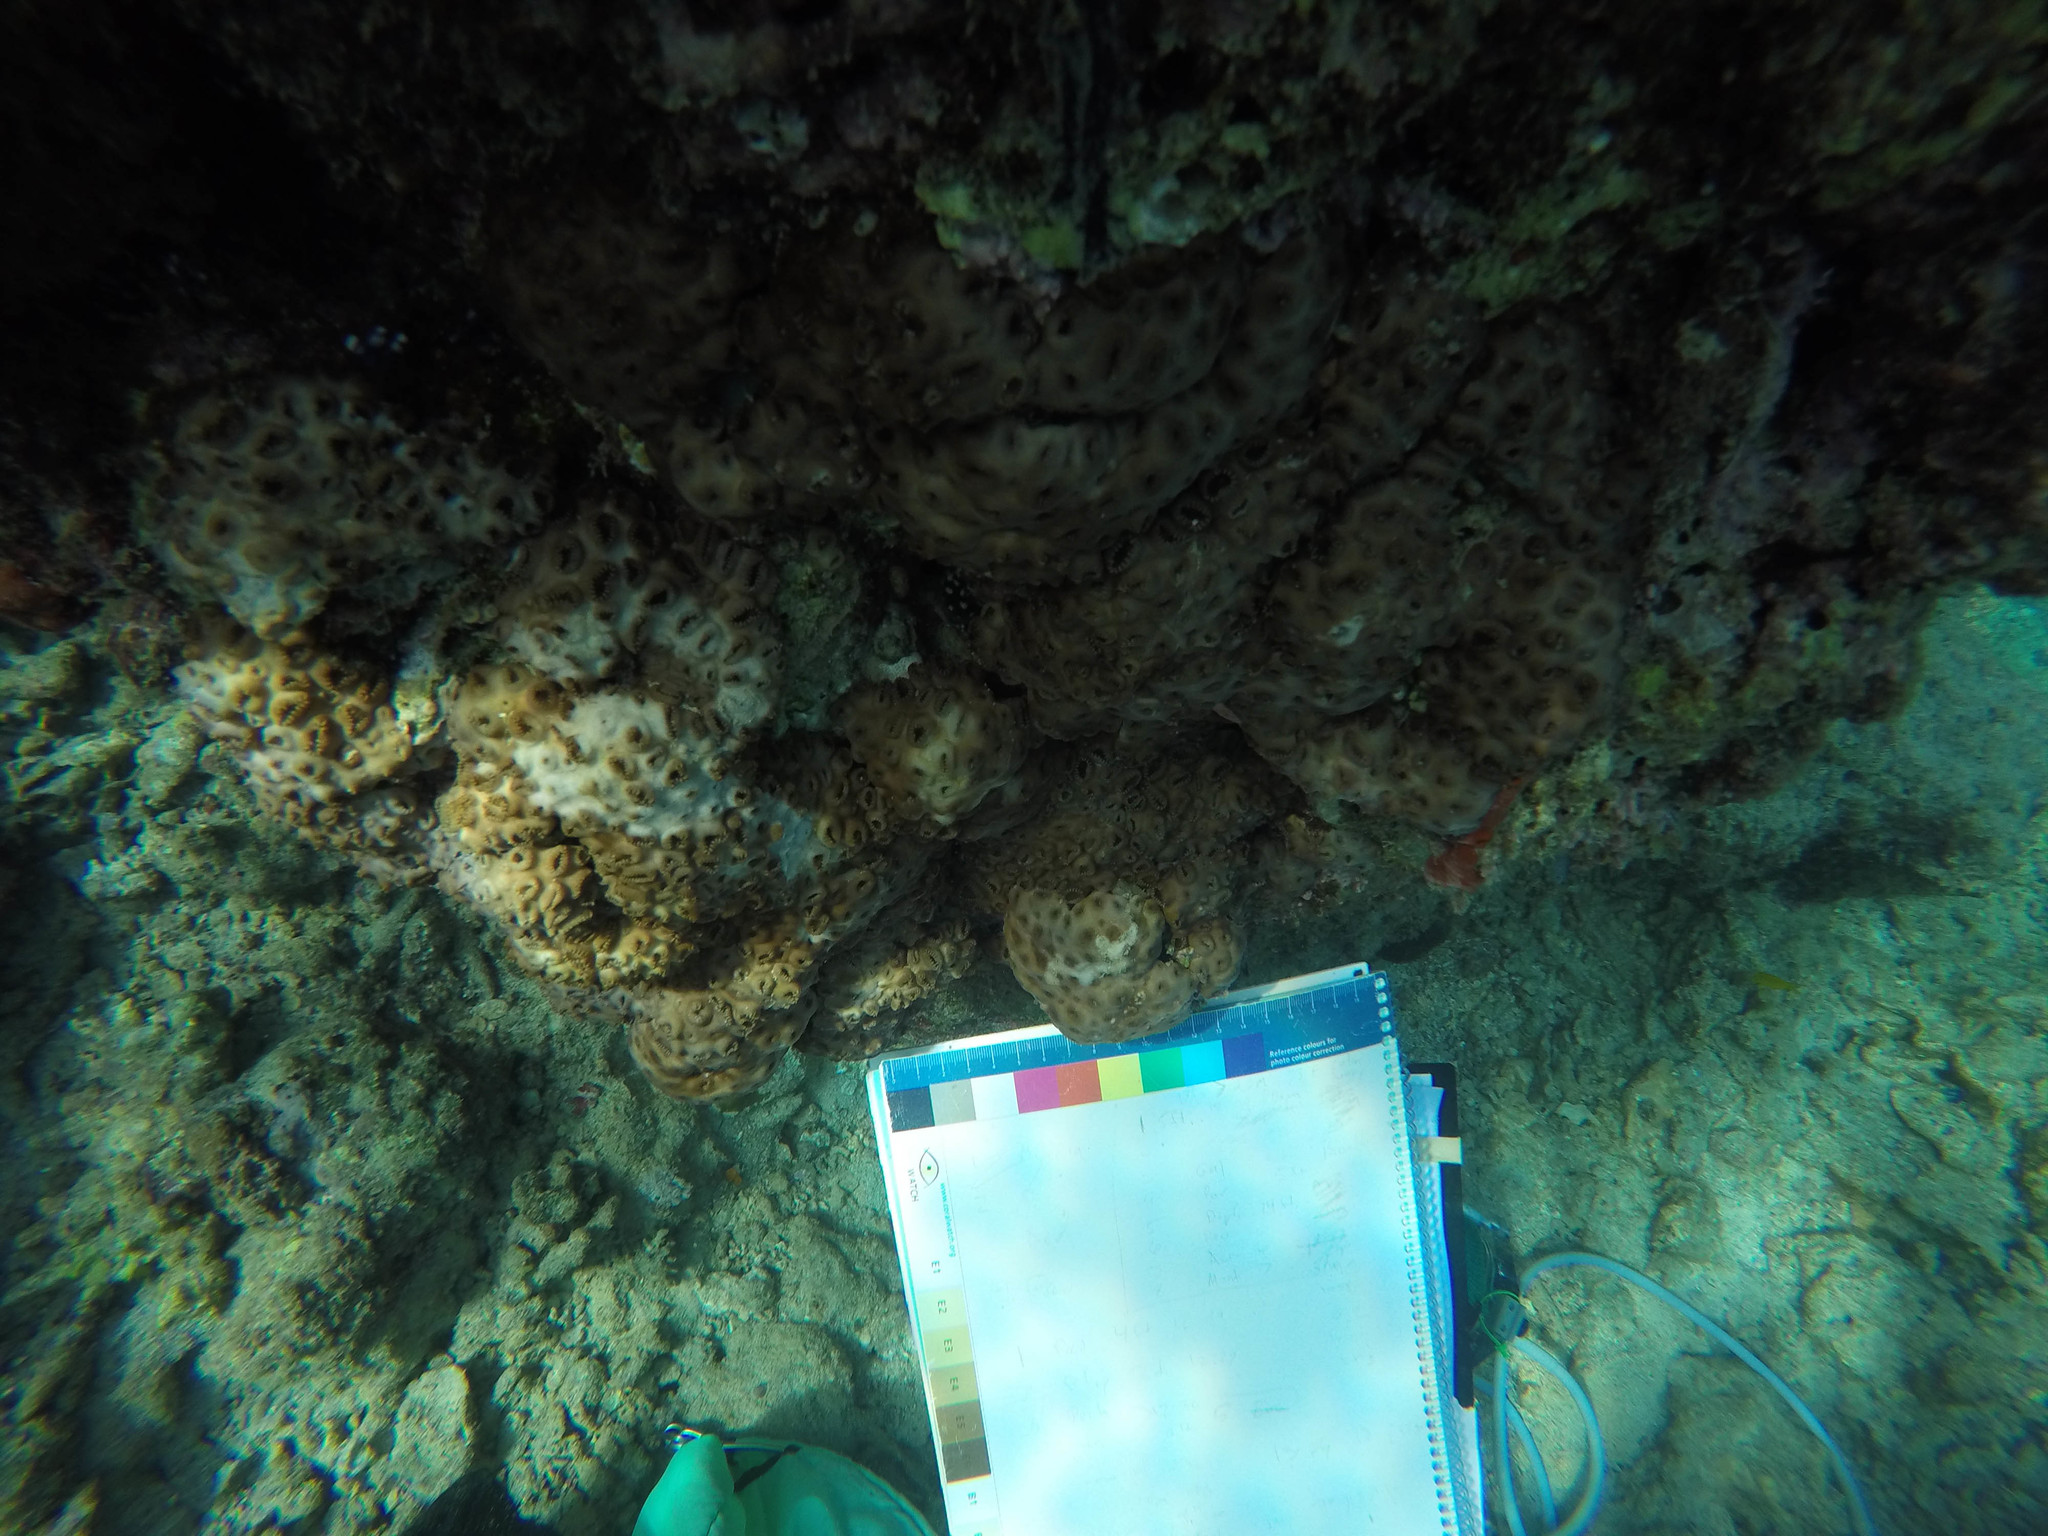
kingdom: Animalia
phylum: Cnidaria
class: Anthozoa
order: Zoantharia
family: Sphenopidae
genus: Palythoa
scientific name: Palythoa tuberculosa
